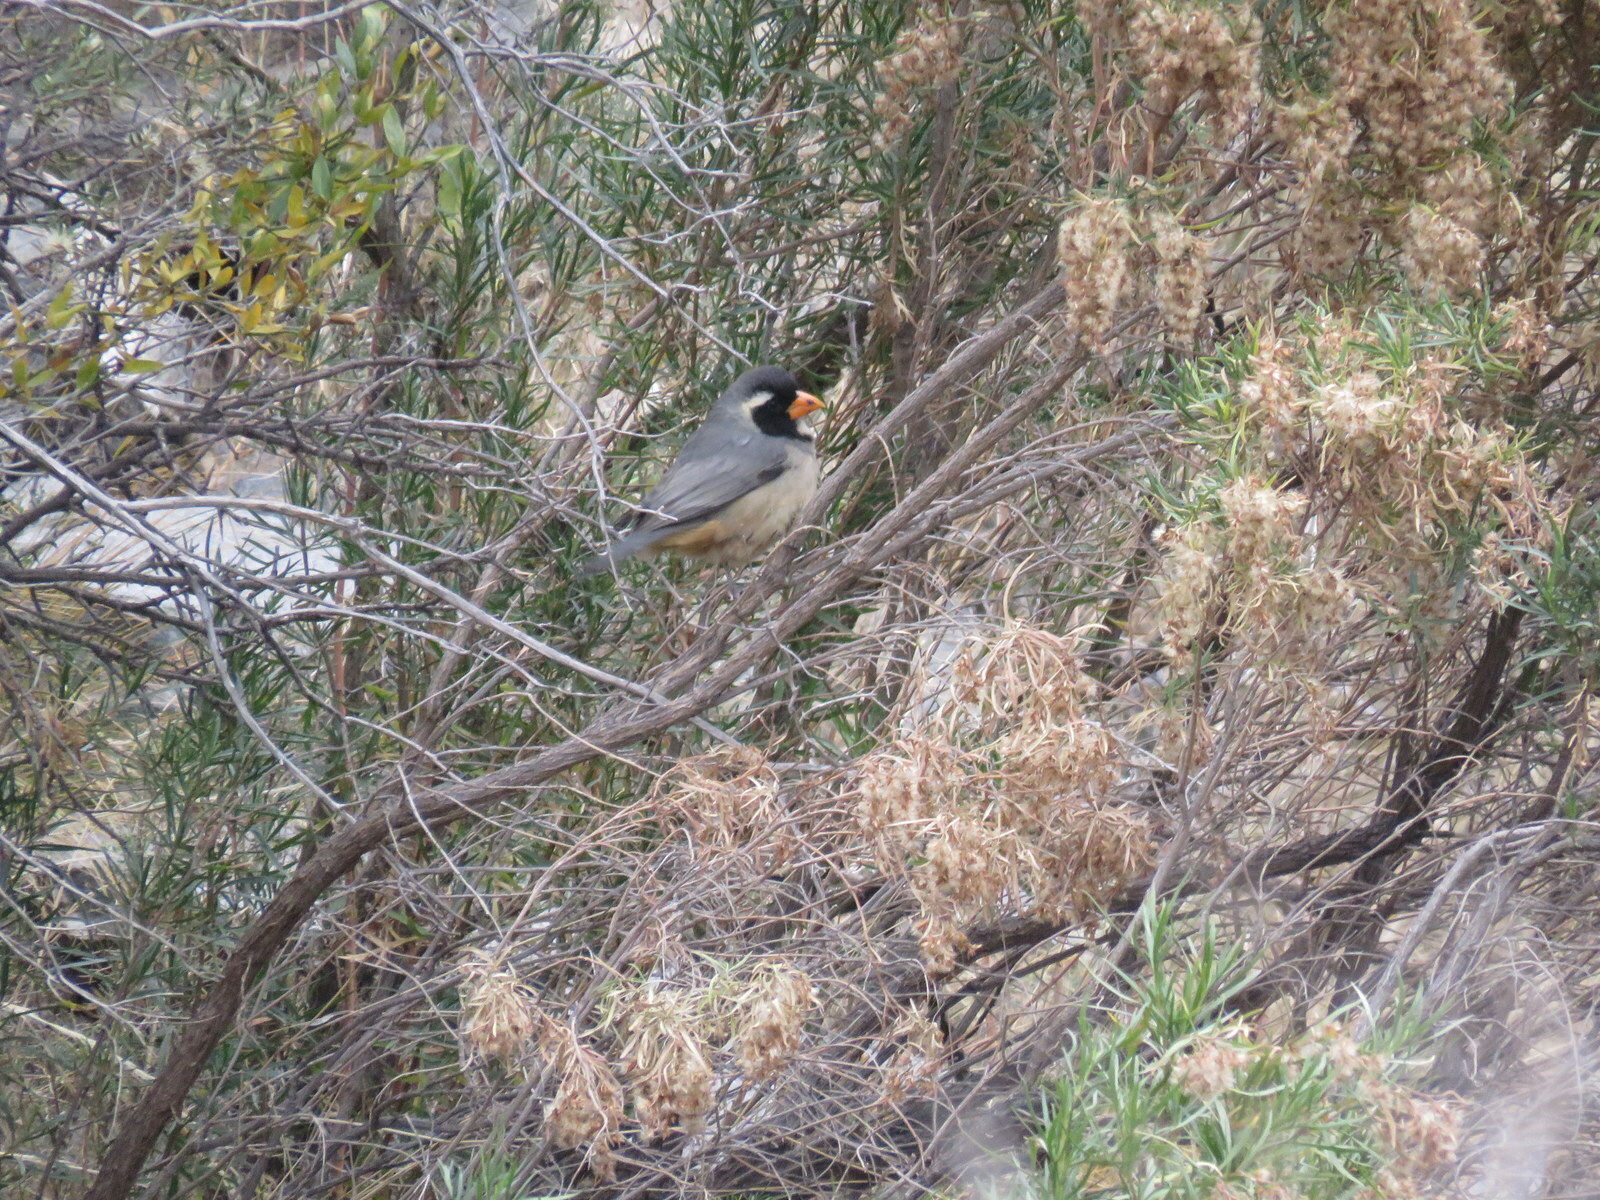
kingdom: Animalia
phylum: Chordata
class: Aves
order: Passeriformes
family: Thraupidae
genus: Saltator
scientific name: Saltator aurantiirostris
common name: Golden-billed saltator
